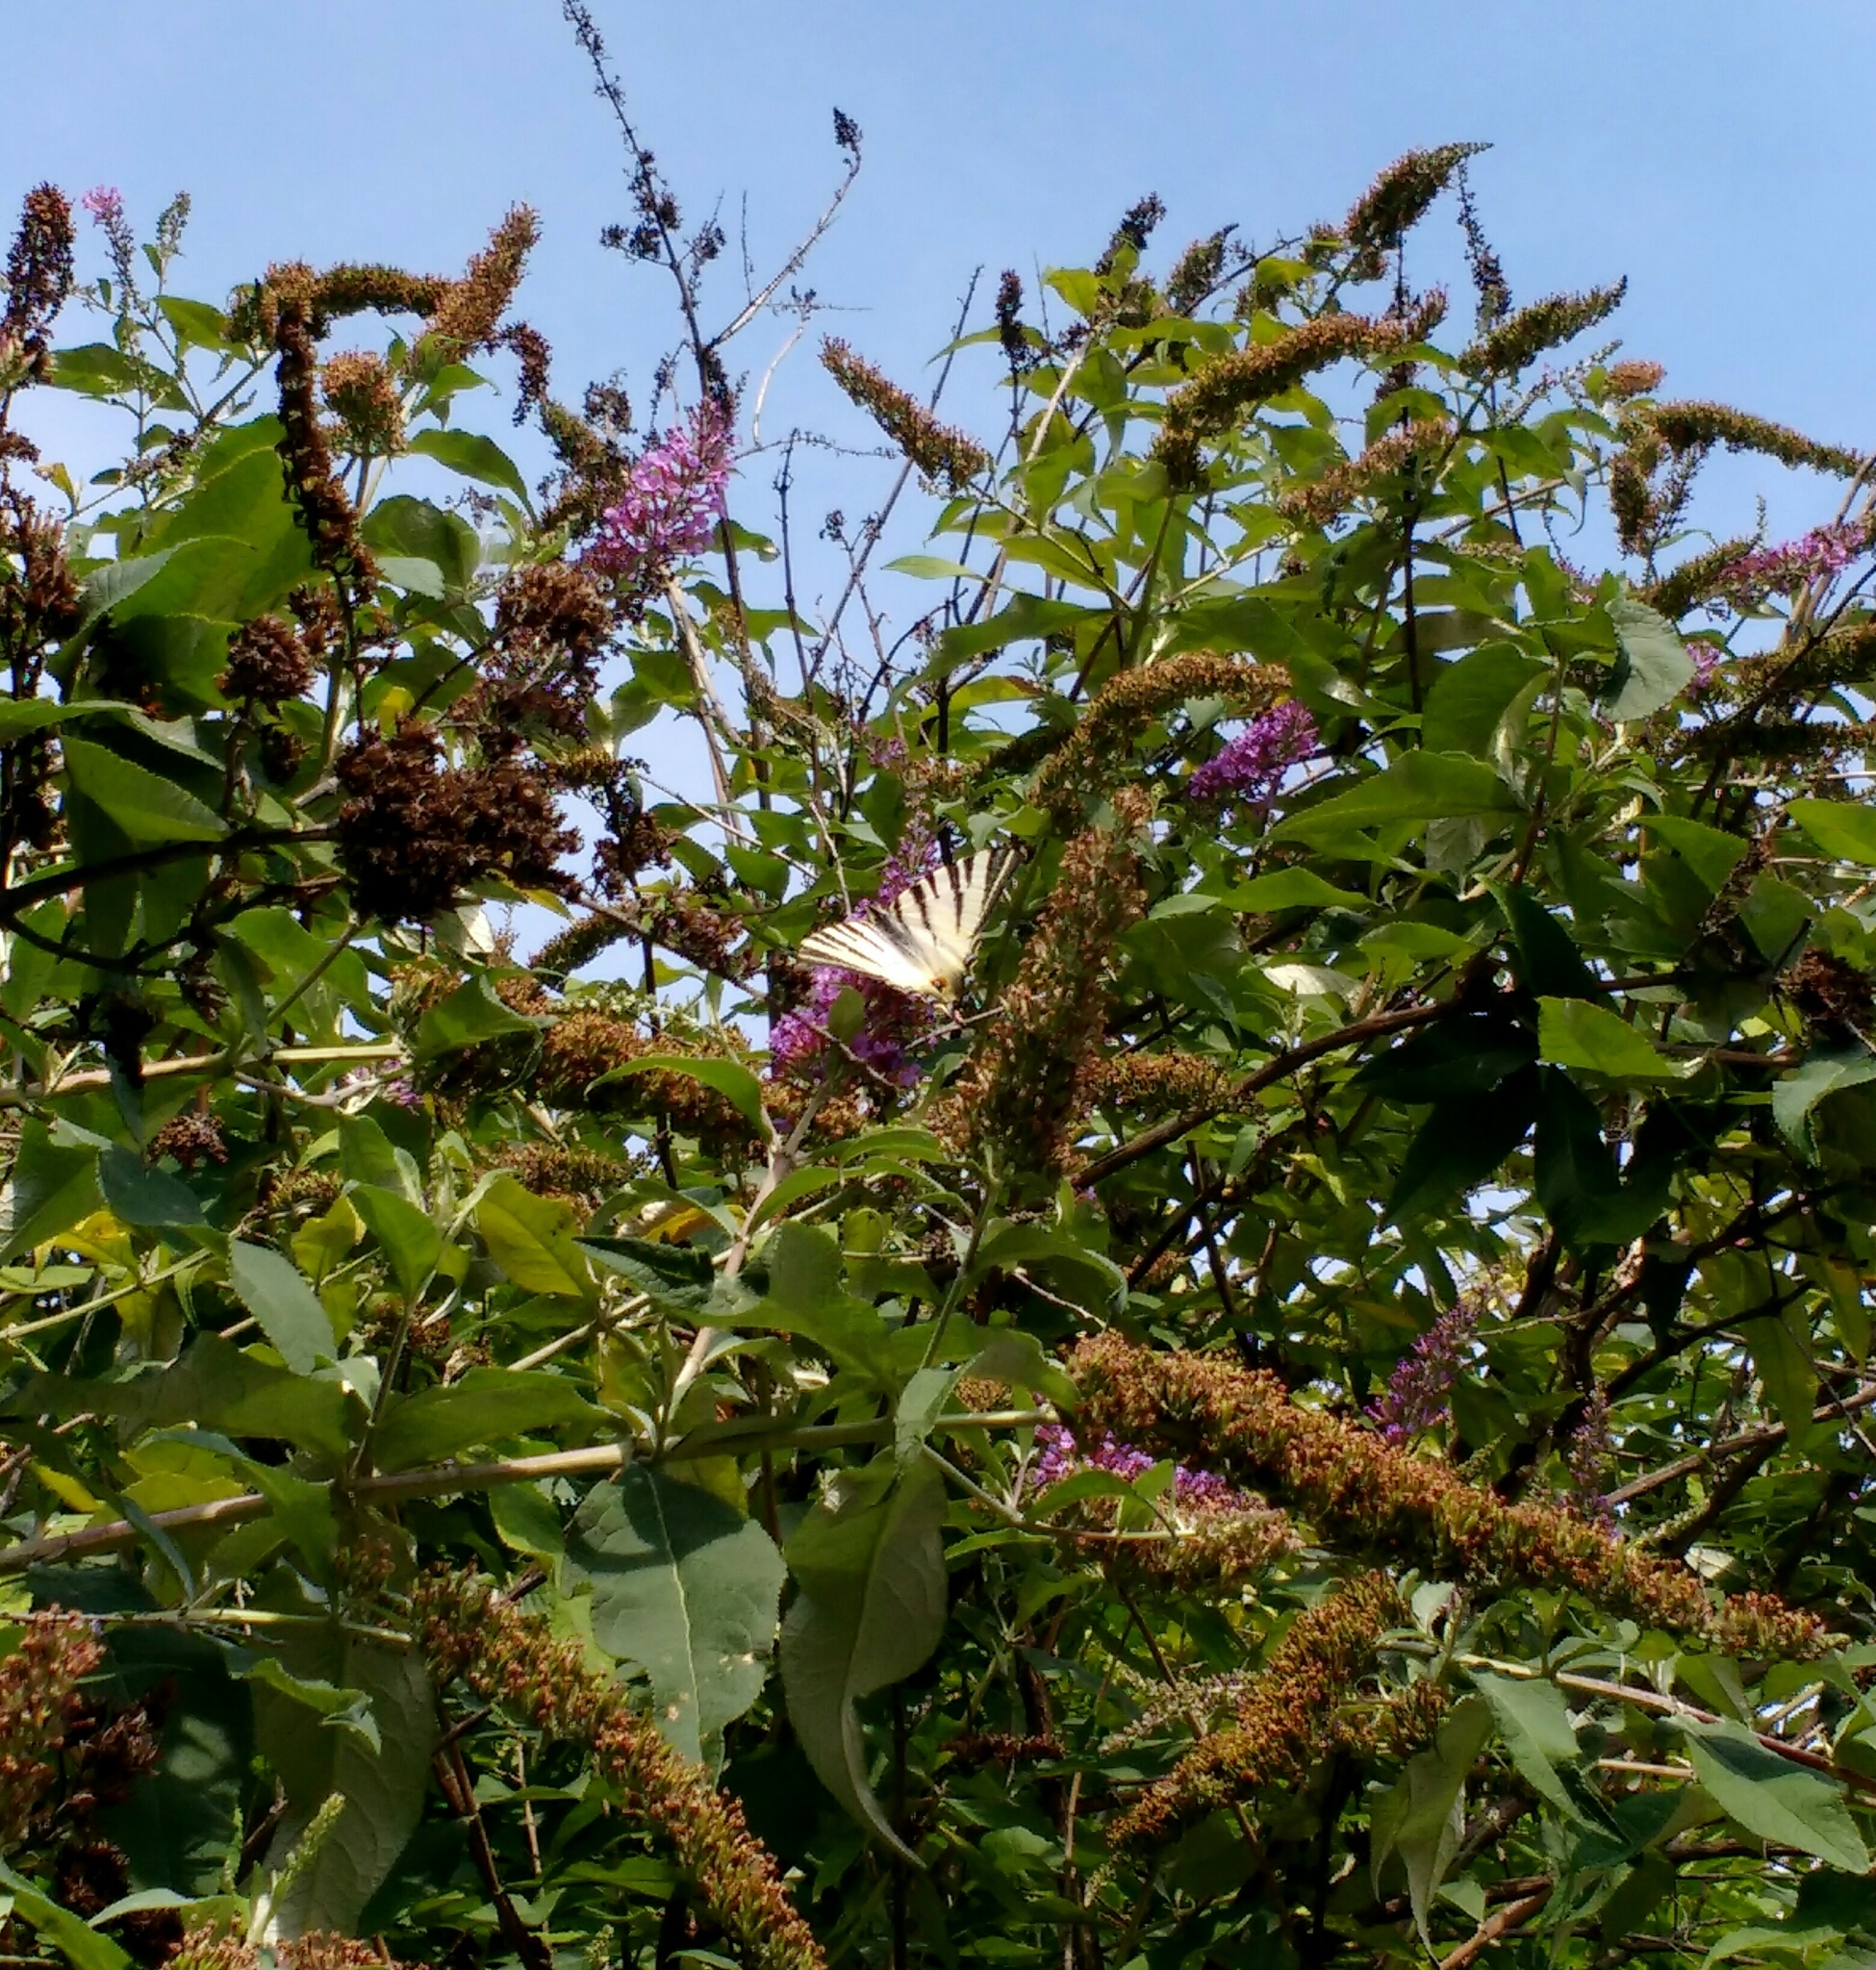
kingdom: Animalia
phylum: Arthropoda
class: Insecta
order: Lepidoptera
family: Papilionidae
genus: Iphiclides
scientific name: Iphiclides podalirius
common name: Scarce swallowtail
